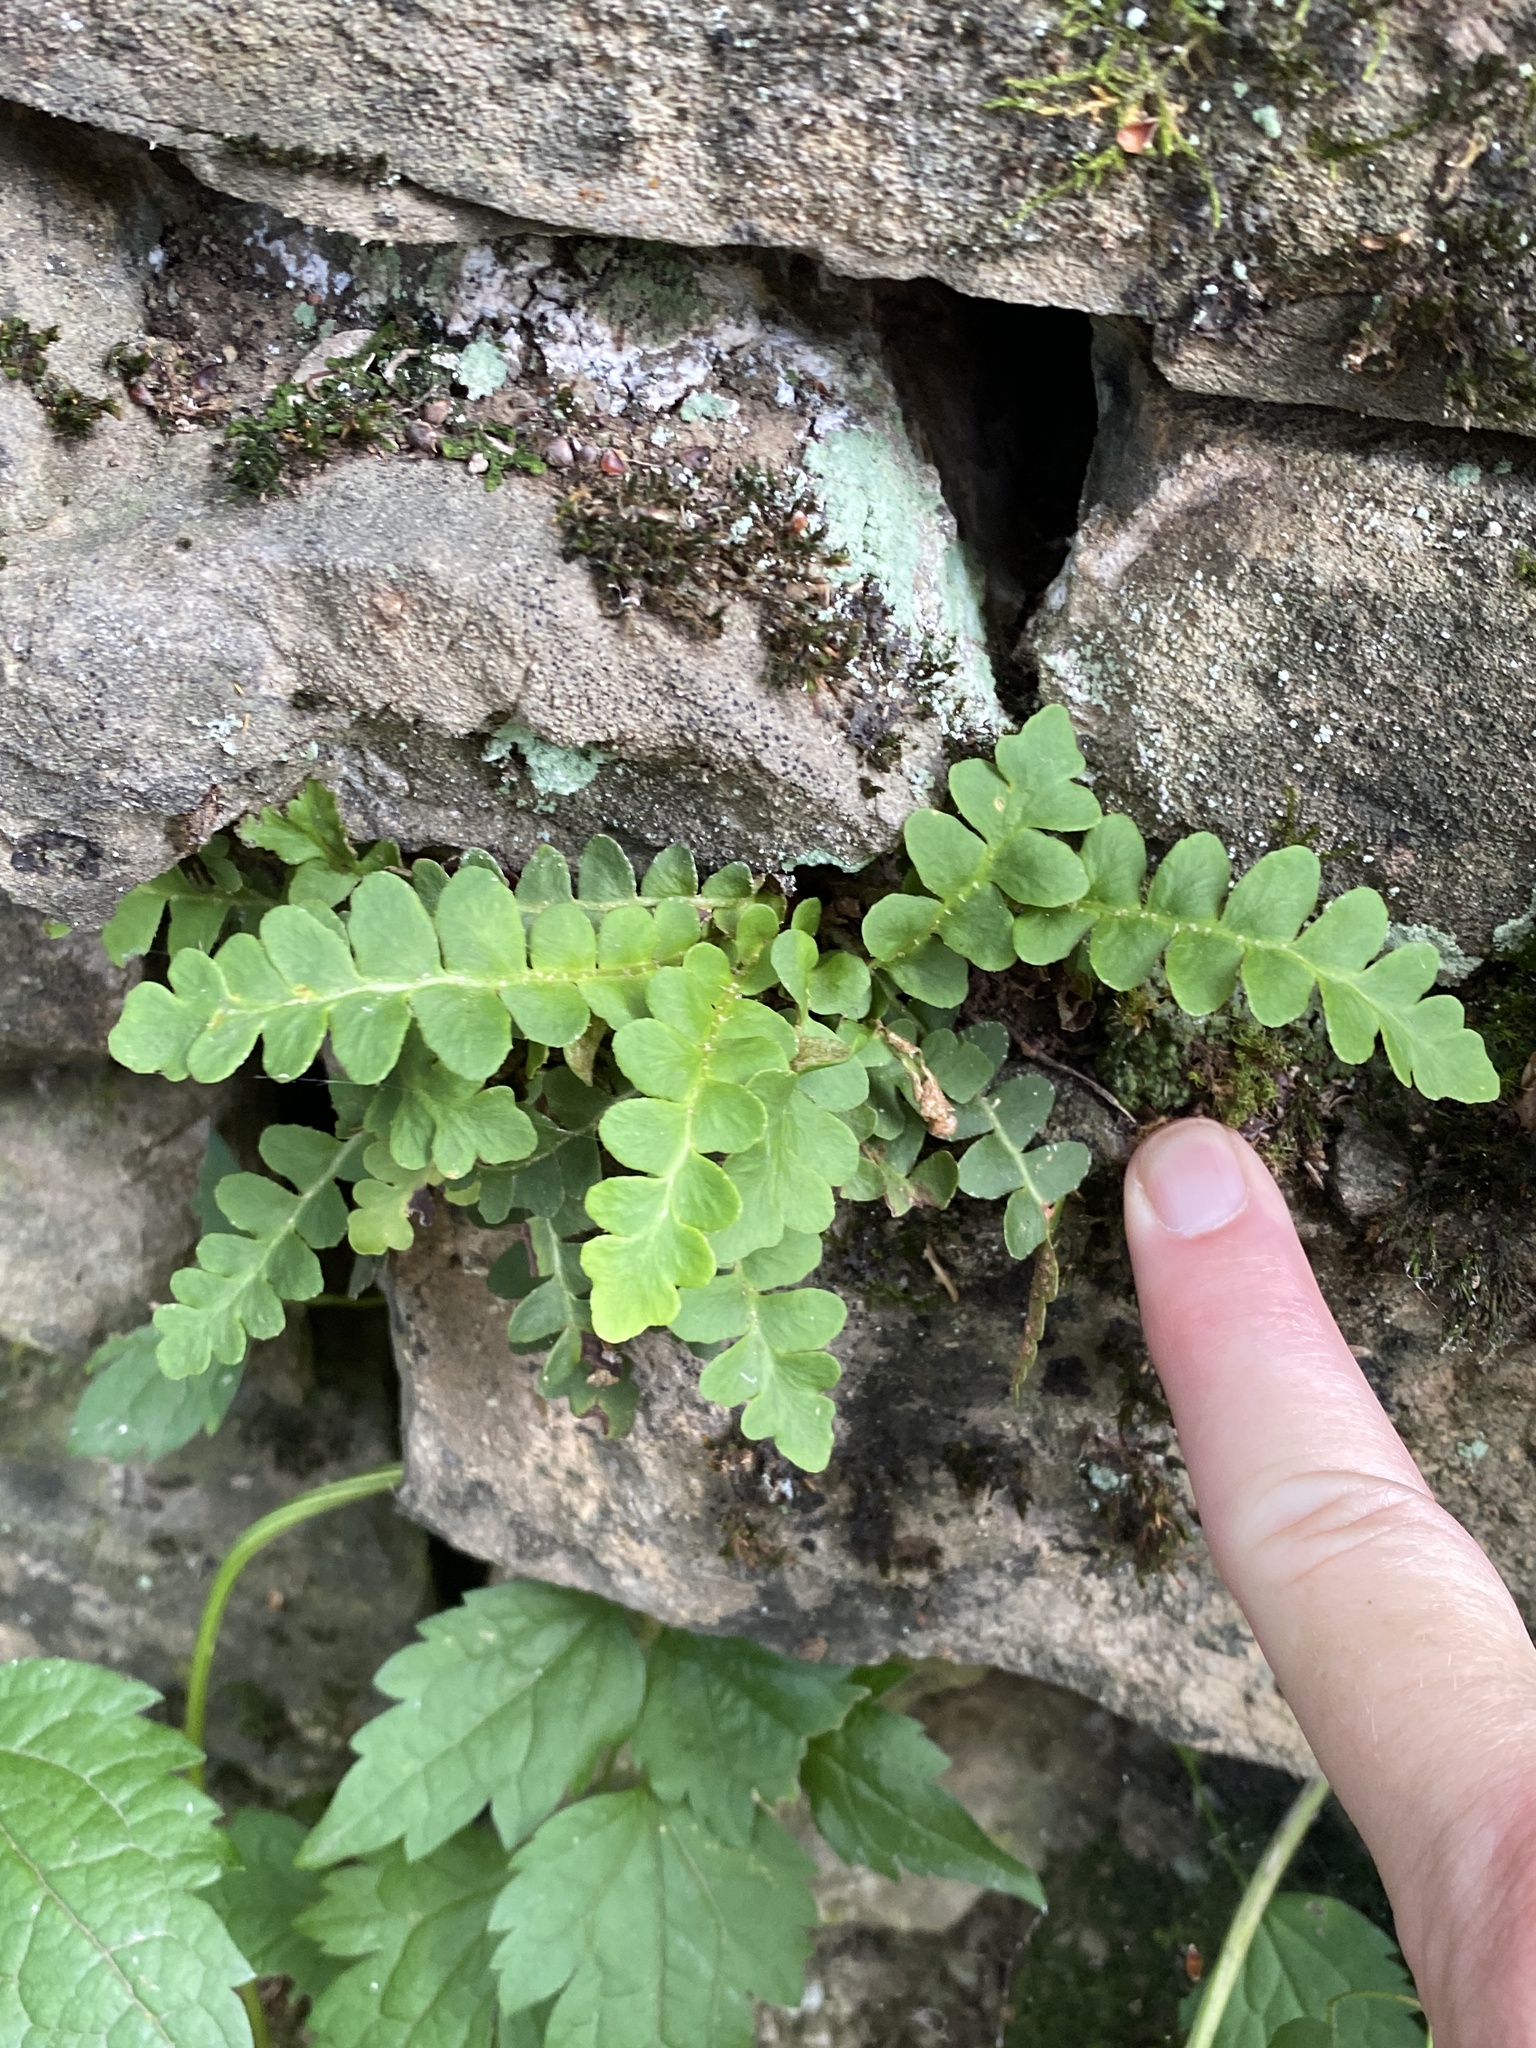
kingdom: Plantae
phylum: Tracheophyta
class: Polypodiopsida
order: Polypodiales
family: Aspleniaceae
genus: Asplenium
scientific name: Asplenium ceterach
